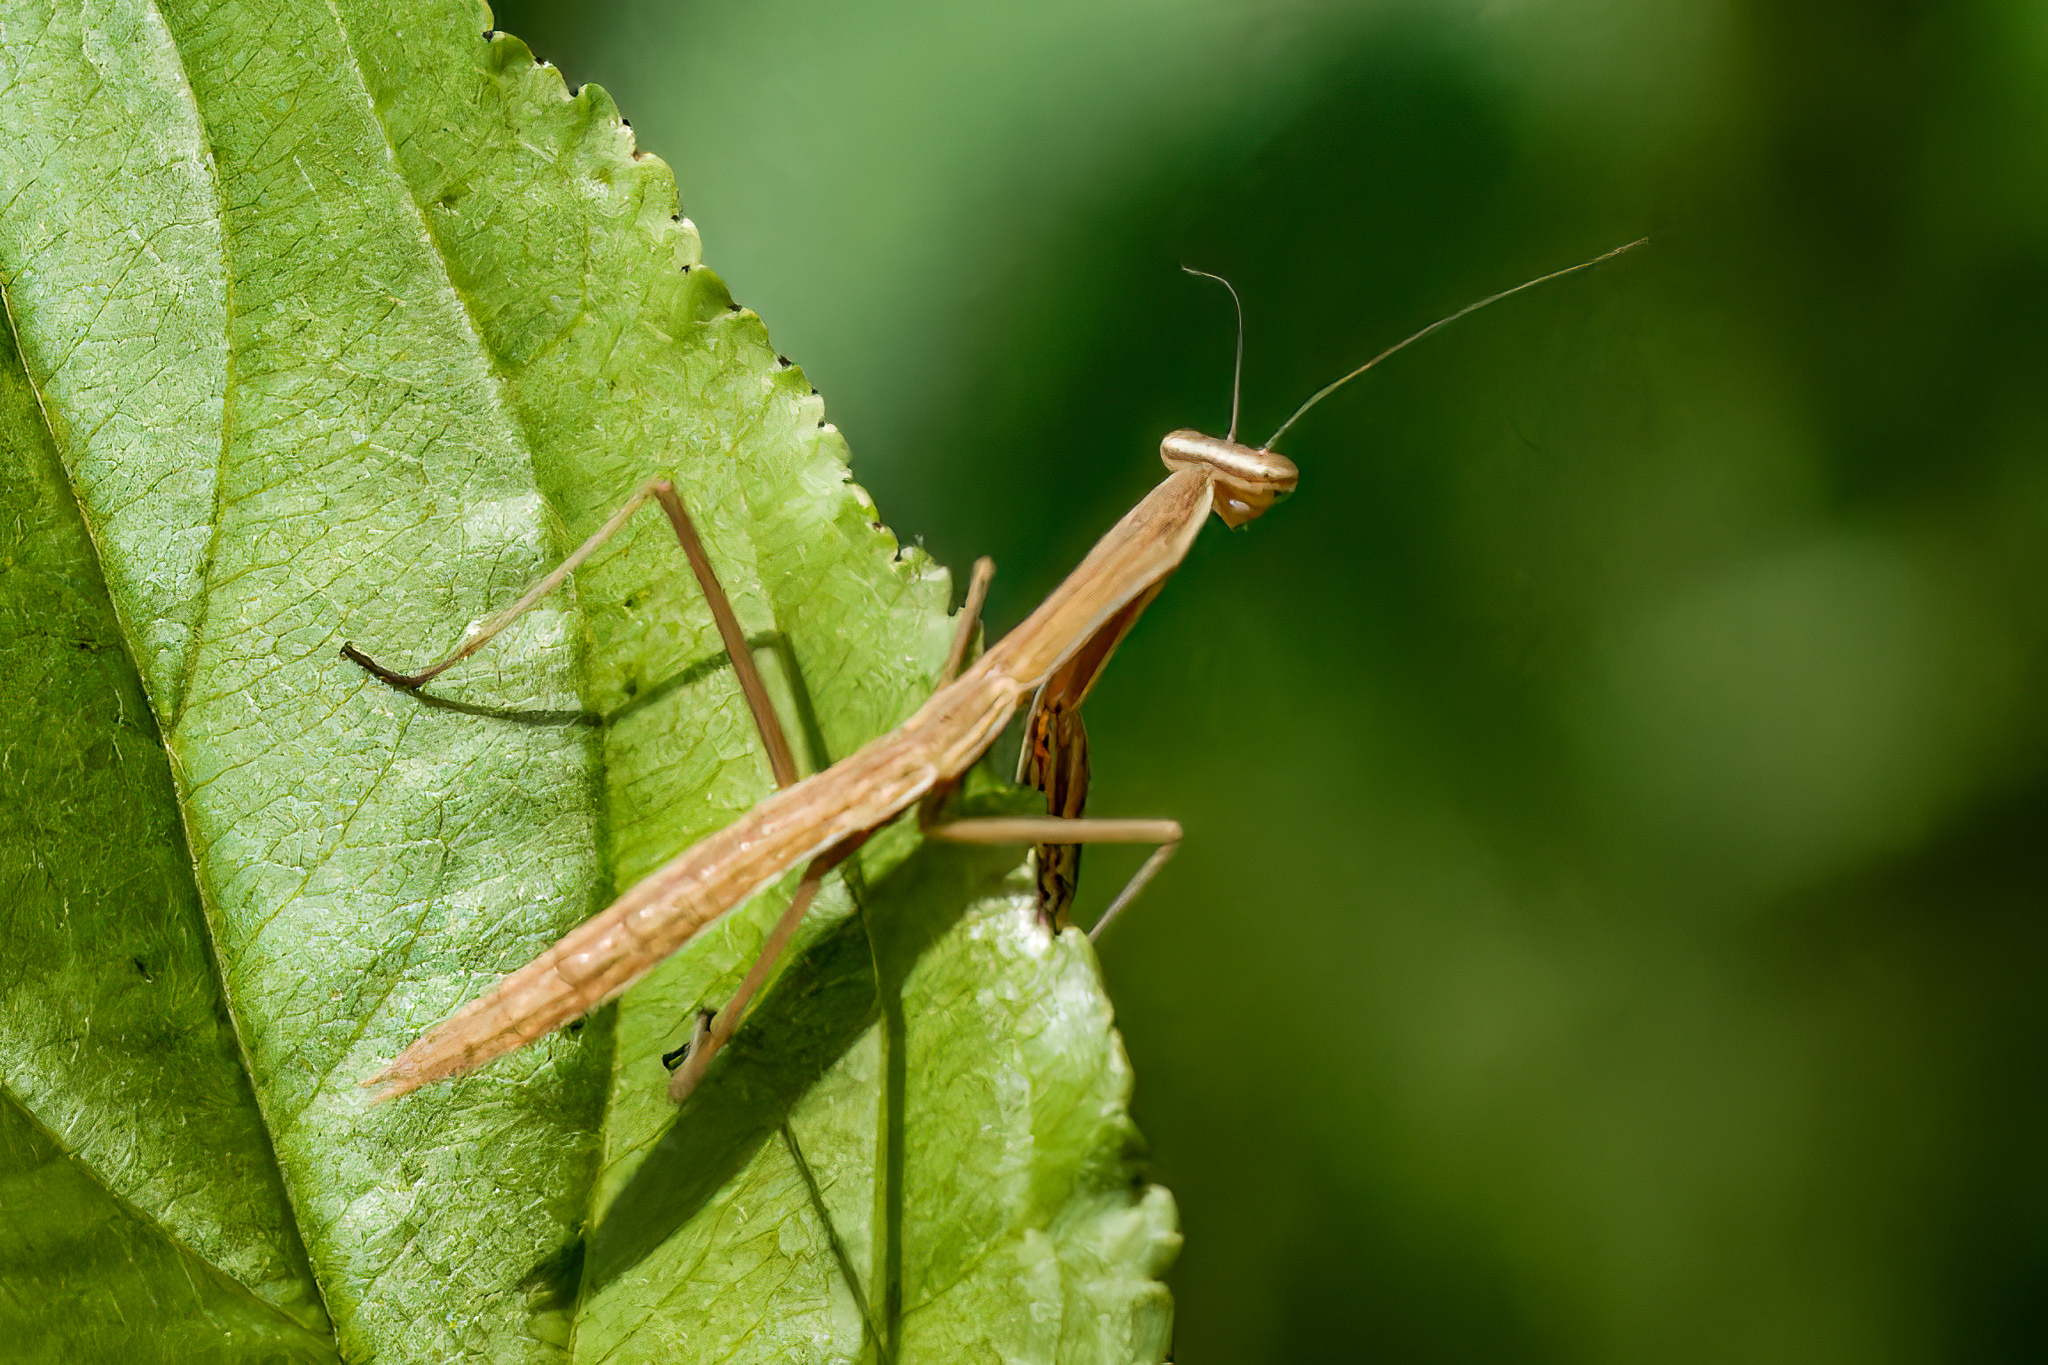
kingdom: Animalia
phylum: Arthropoda
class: Insecta
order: Mantodea
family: Mantidae
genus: Tenodera
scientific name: Tenodera sinensis
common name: Chinese mantis
